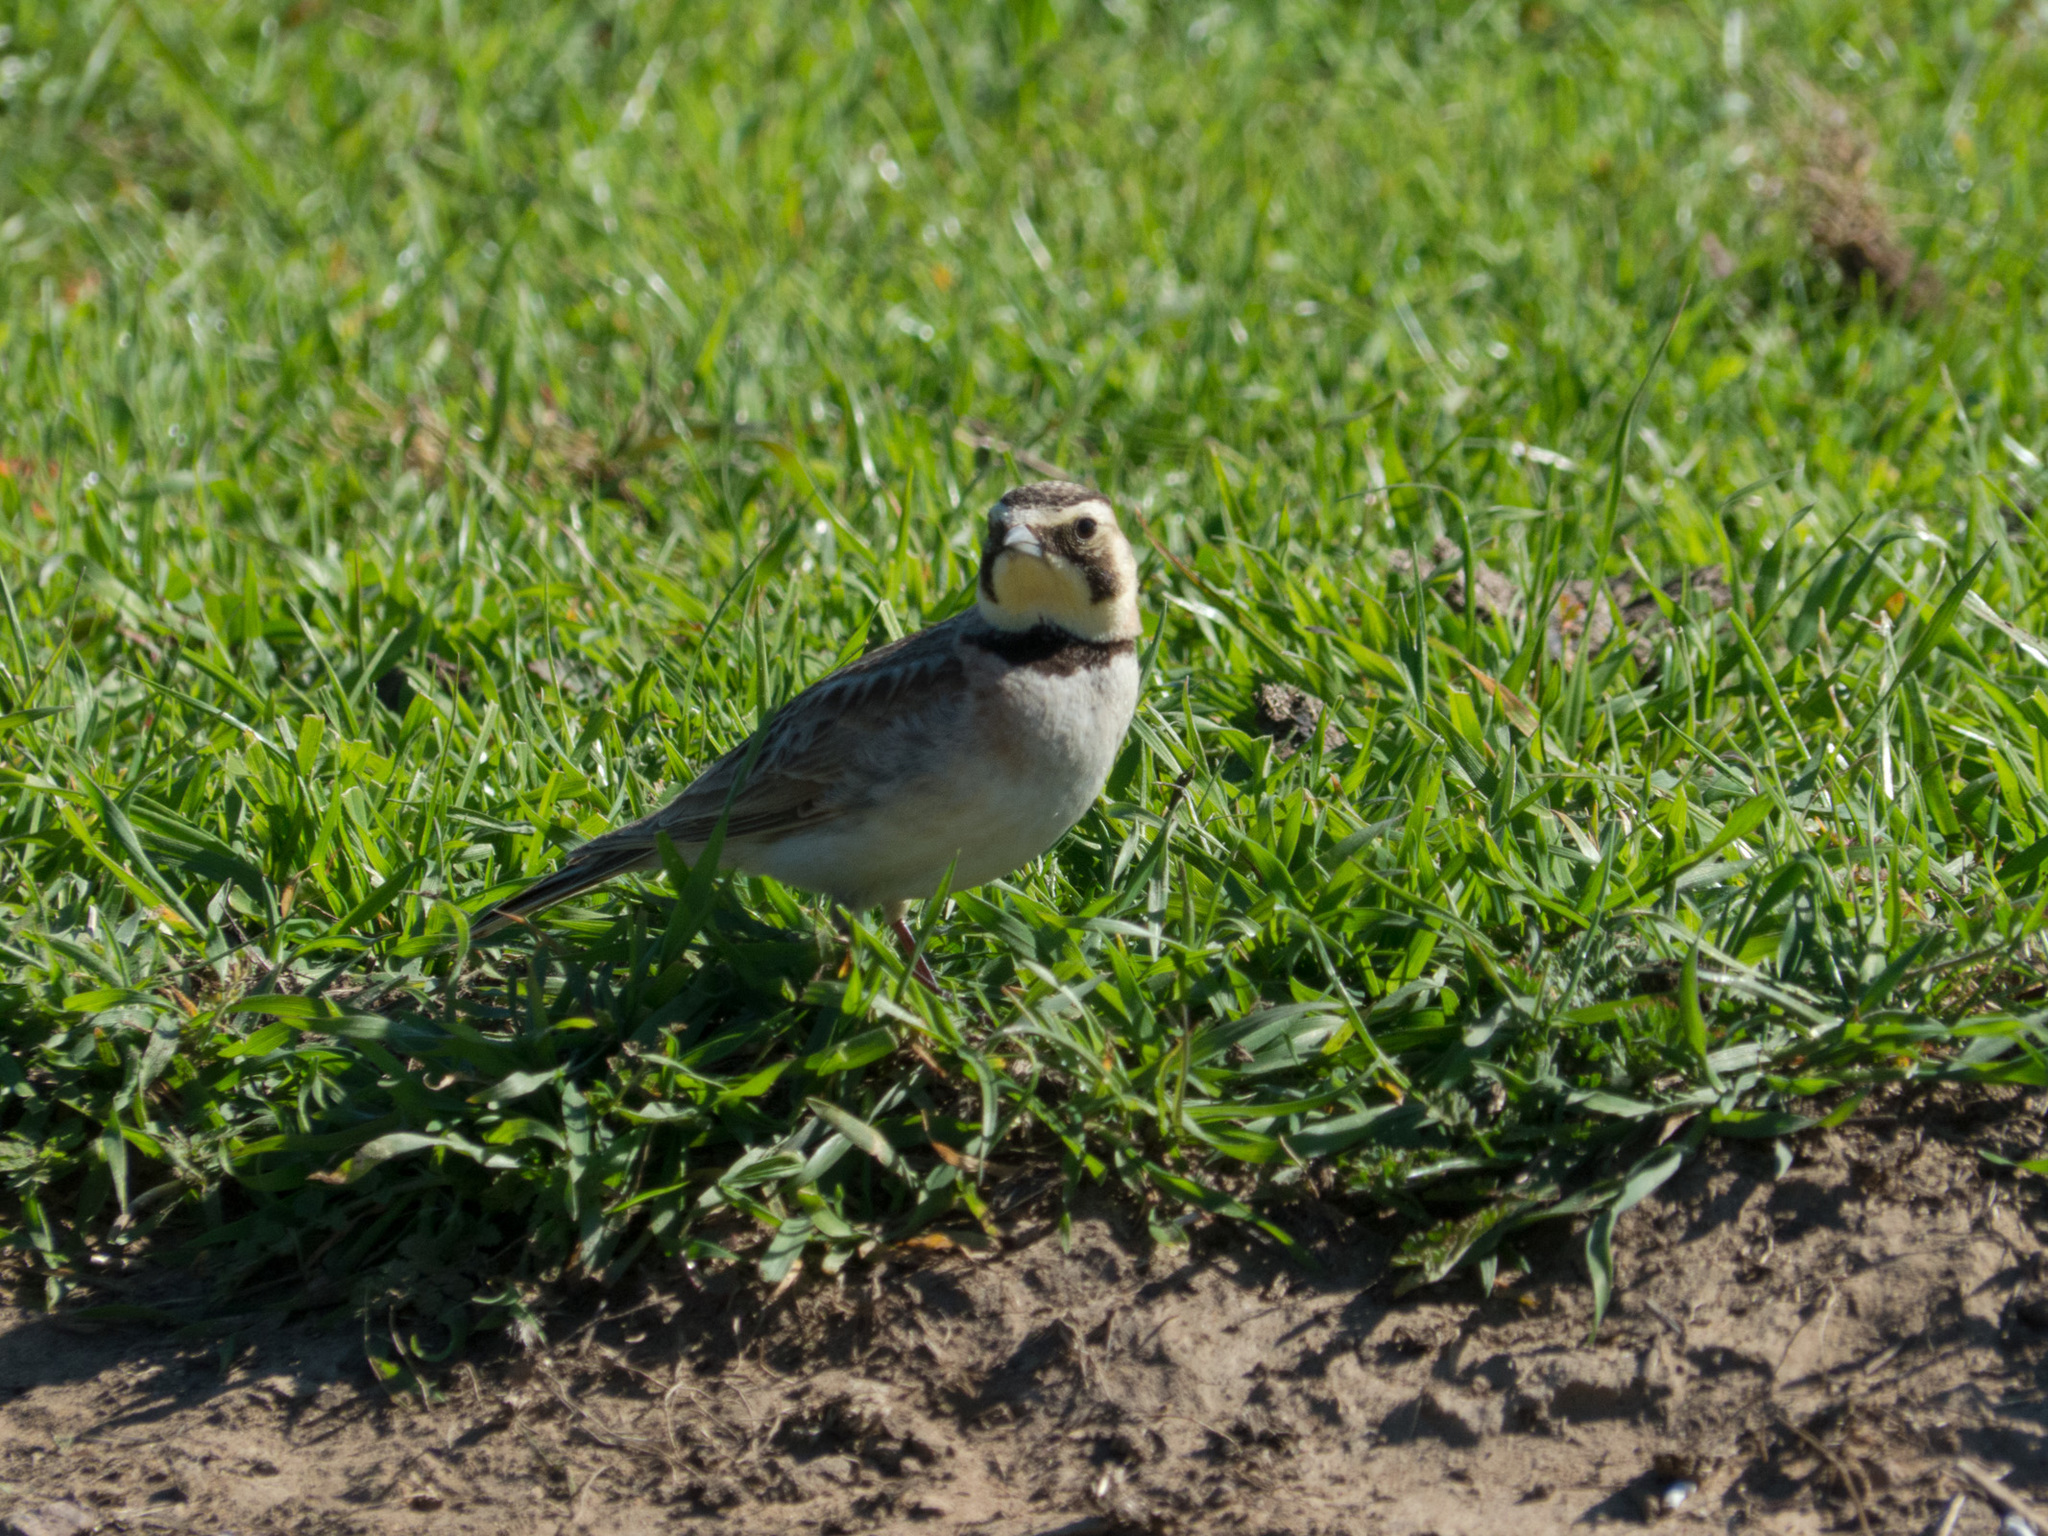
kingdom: Animalia
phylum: Chordata
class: Aves
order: Passeriformes
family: Alaudidae
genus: Eremophila
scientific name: Eremophila alpestris
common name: Horned lark
